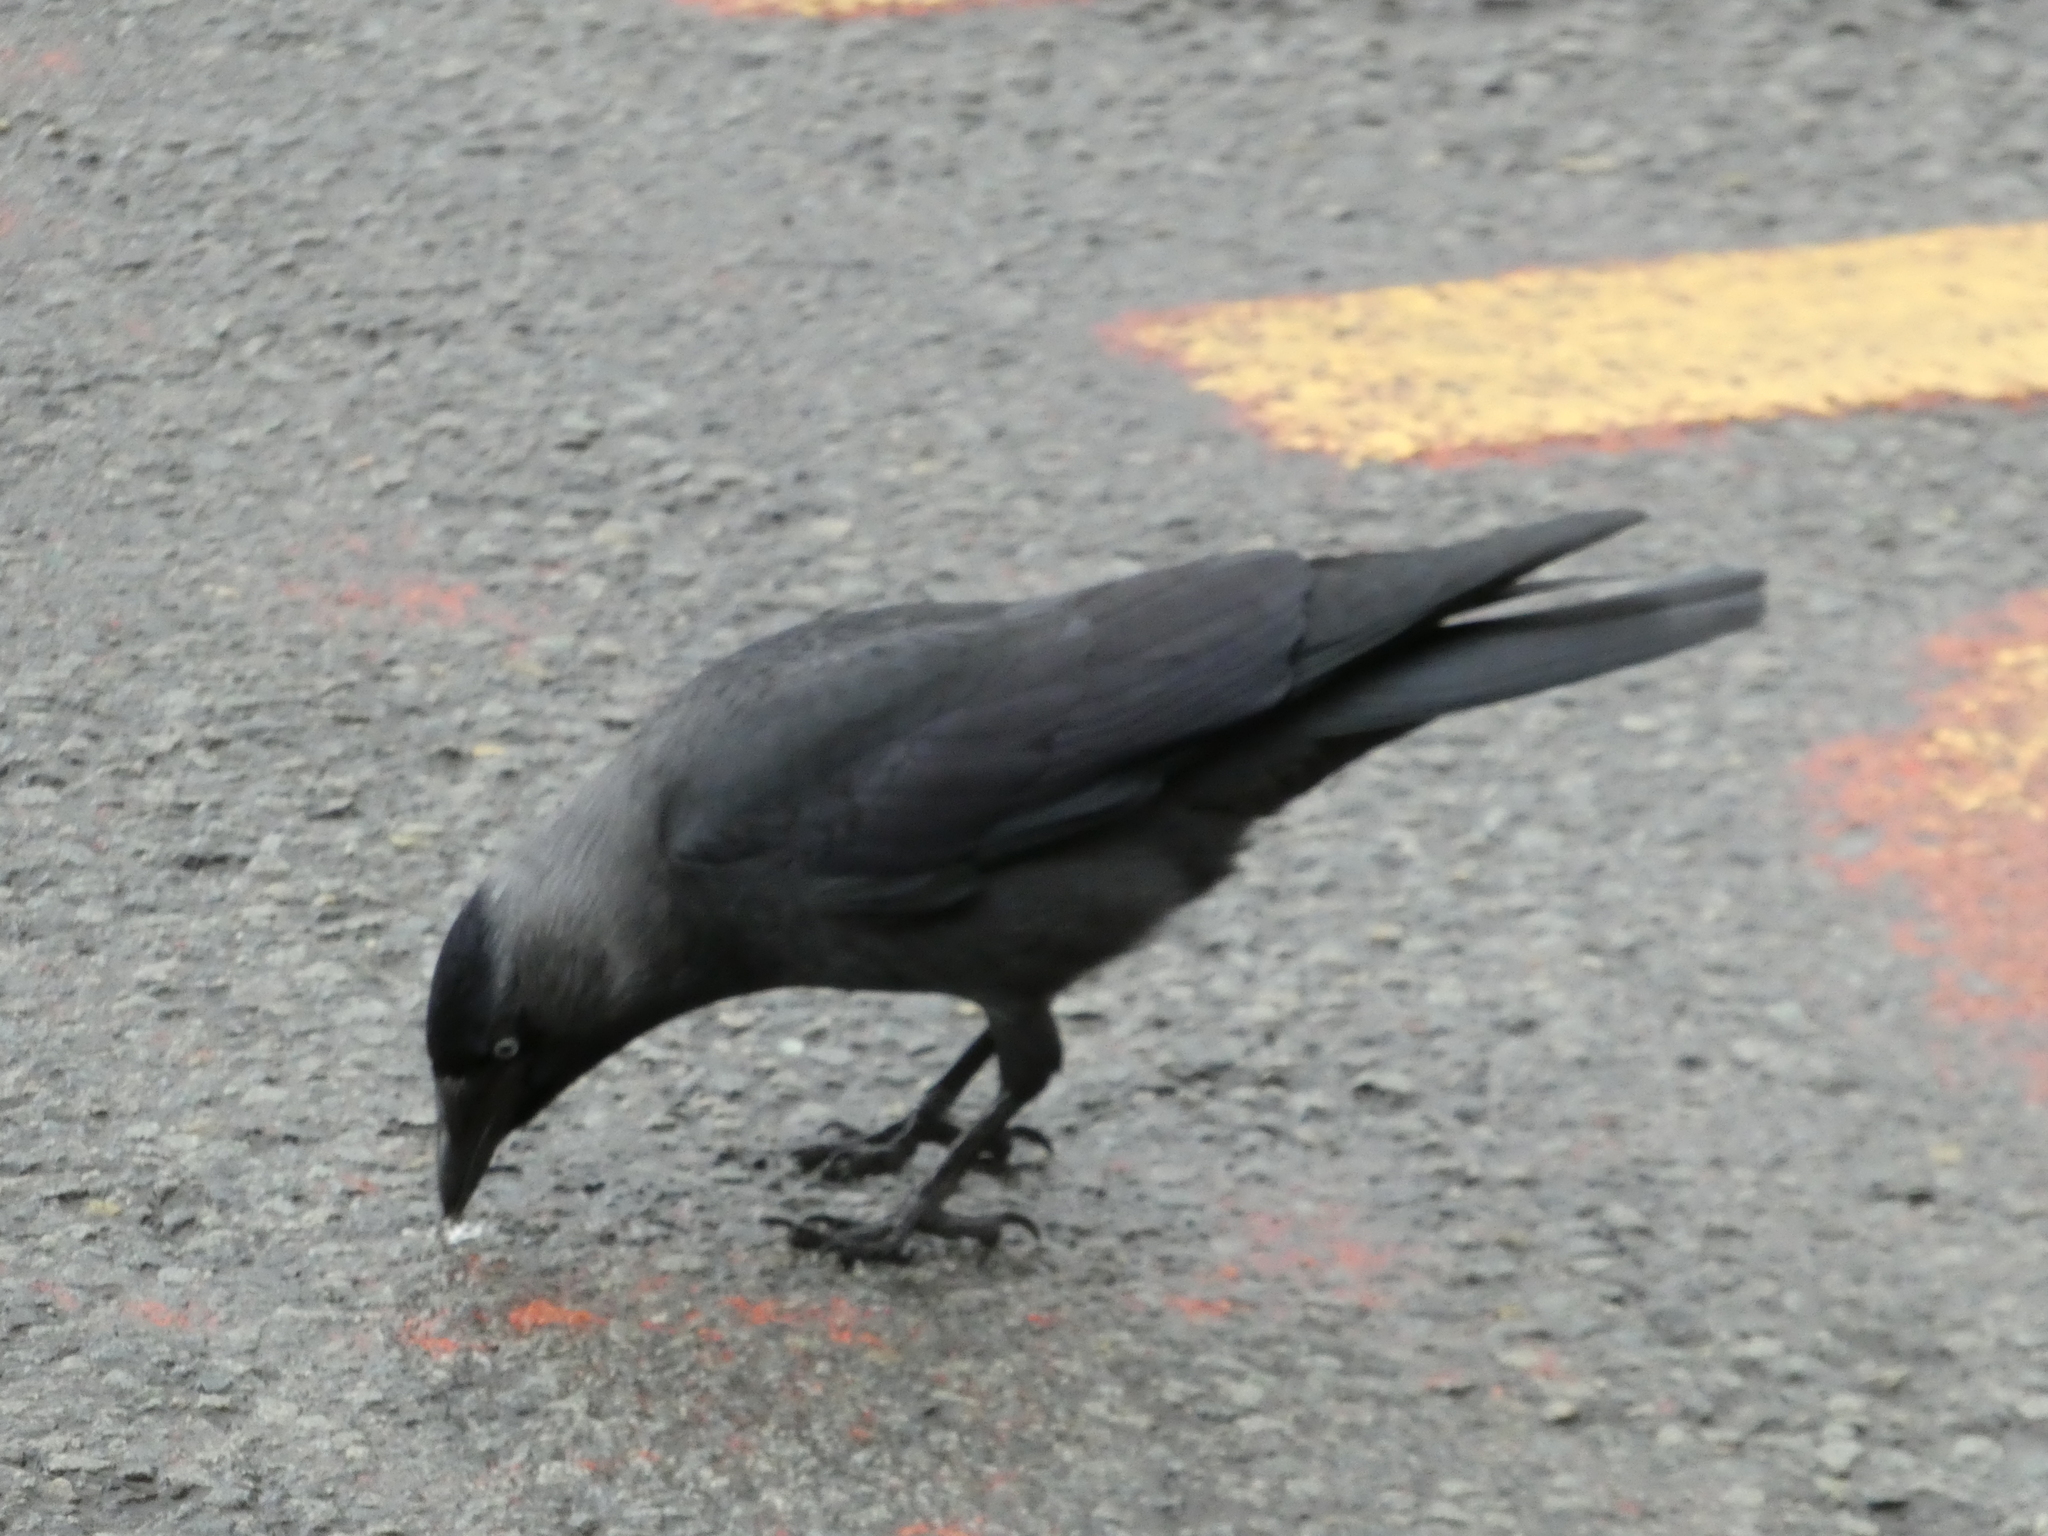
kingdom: Animalia
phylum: Chordata
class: Aves
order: Passeriformes
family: Corvidae
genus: Coloeus
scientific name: Coloeus monedula
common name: Western jackdaw
